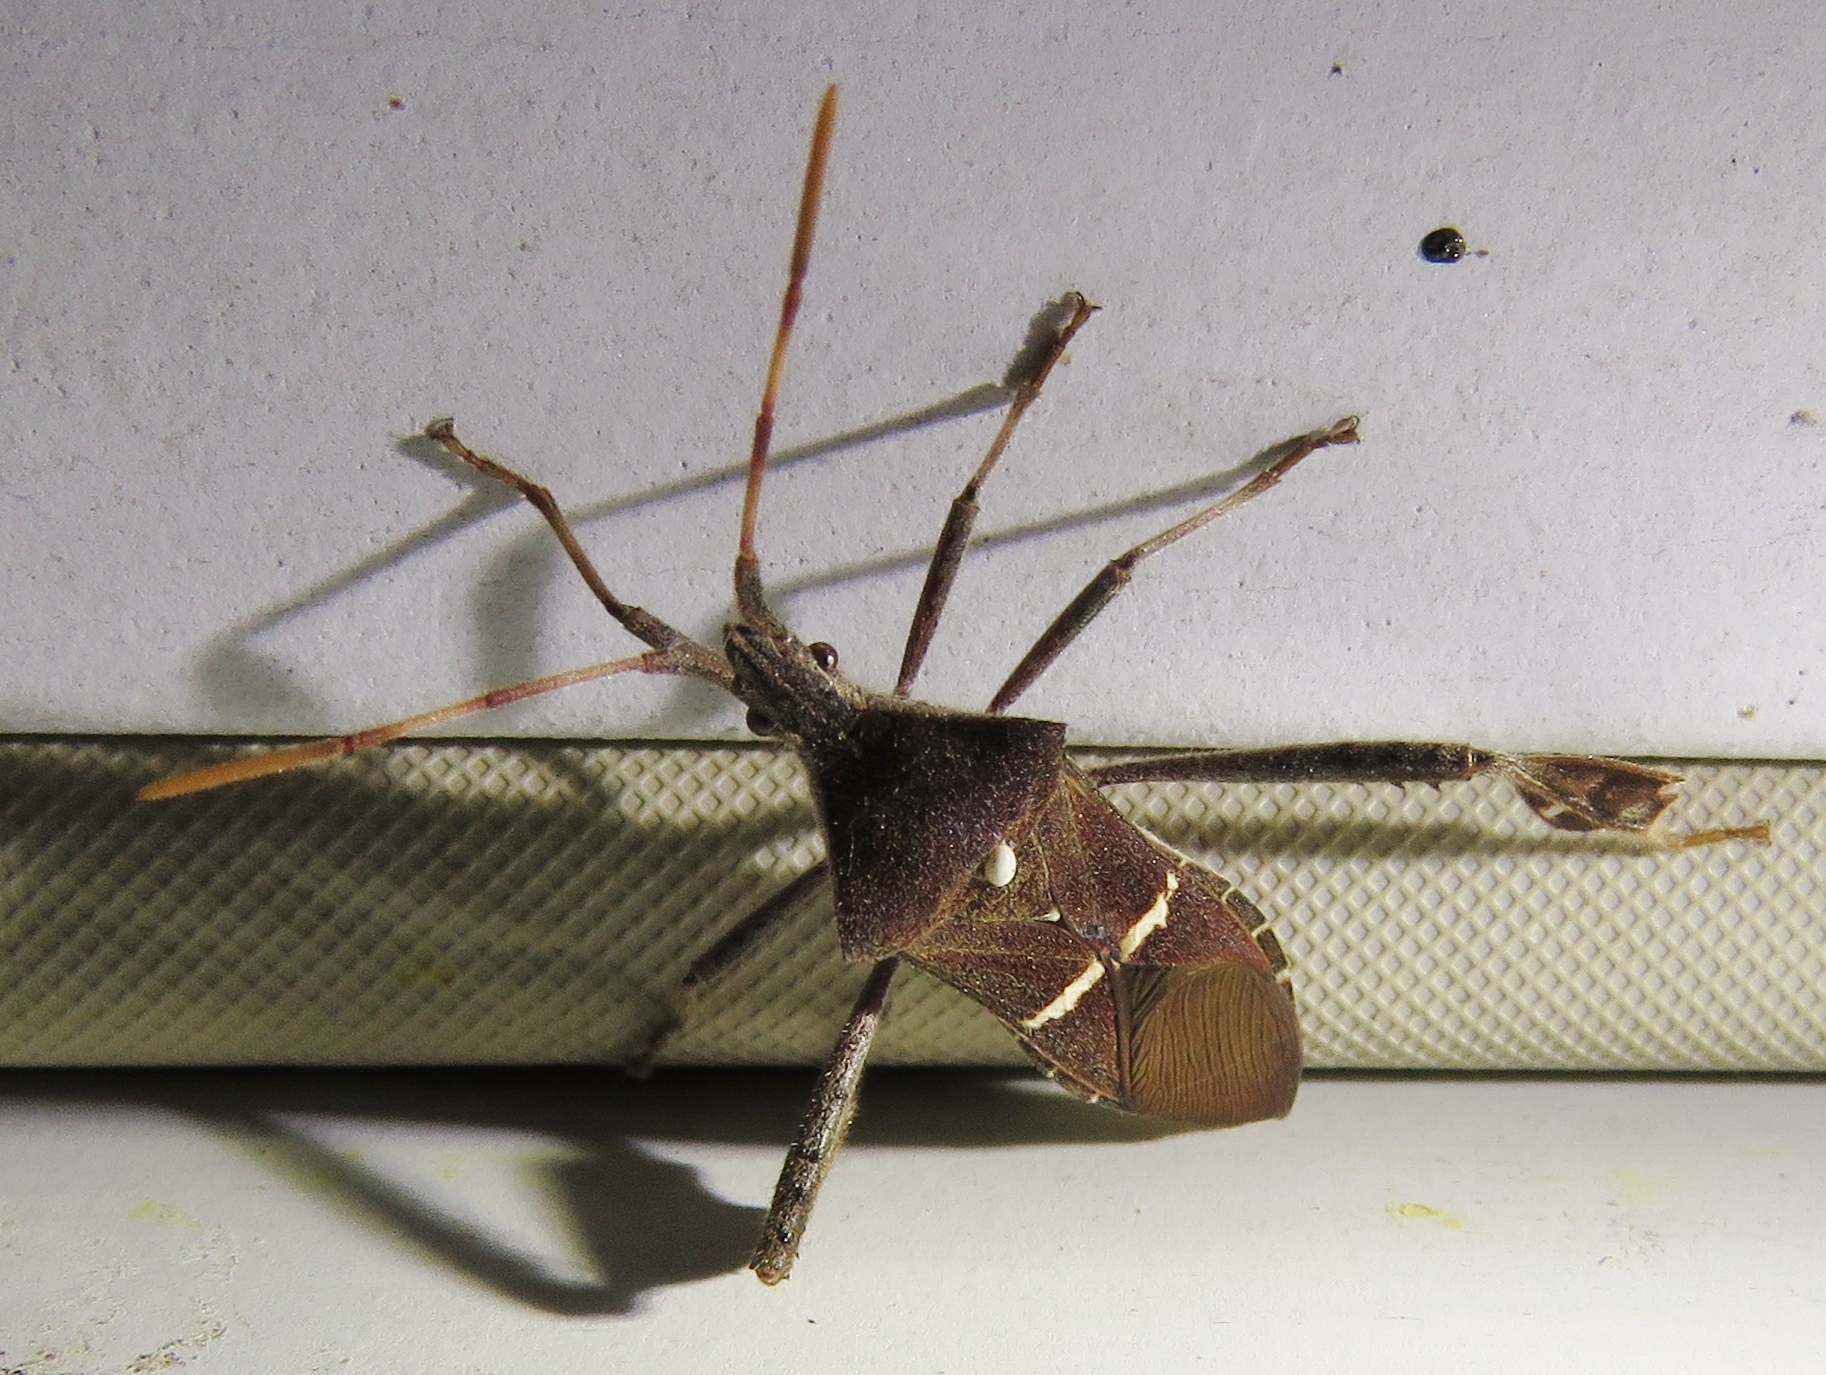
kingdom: Animalia
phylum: Arthropoda
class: Insecta
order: Hemiptera
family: Coreidae
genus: Leptoglossus
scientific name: Leptoglossus phyllopus
